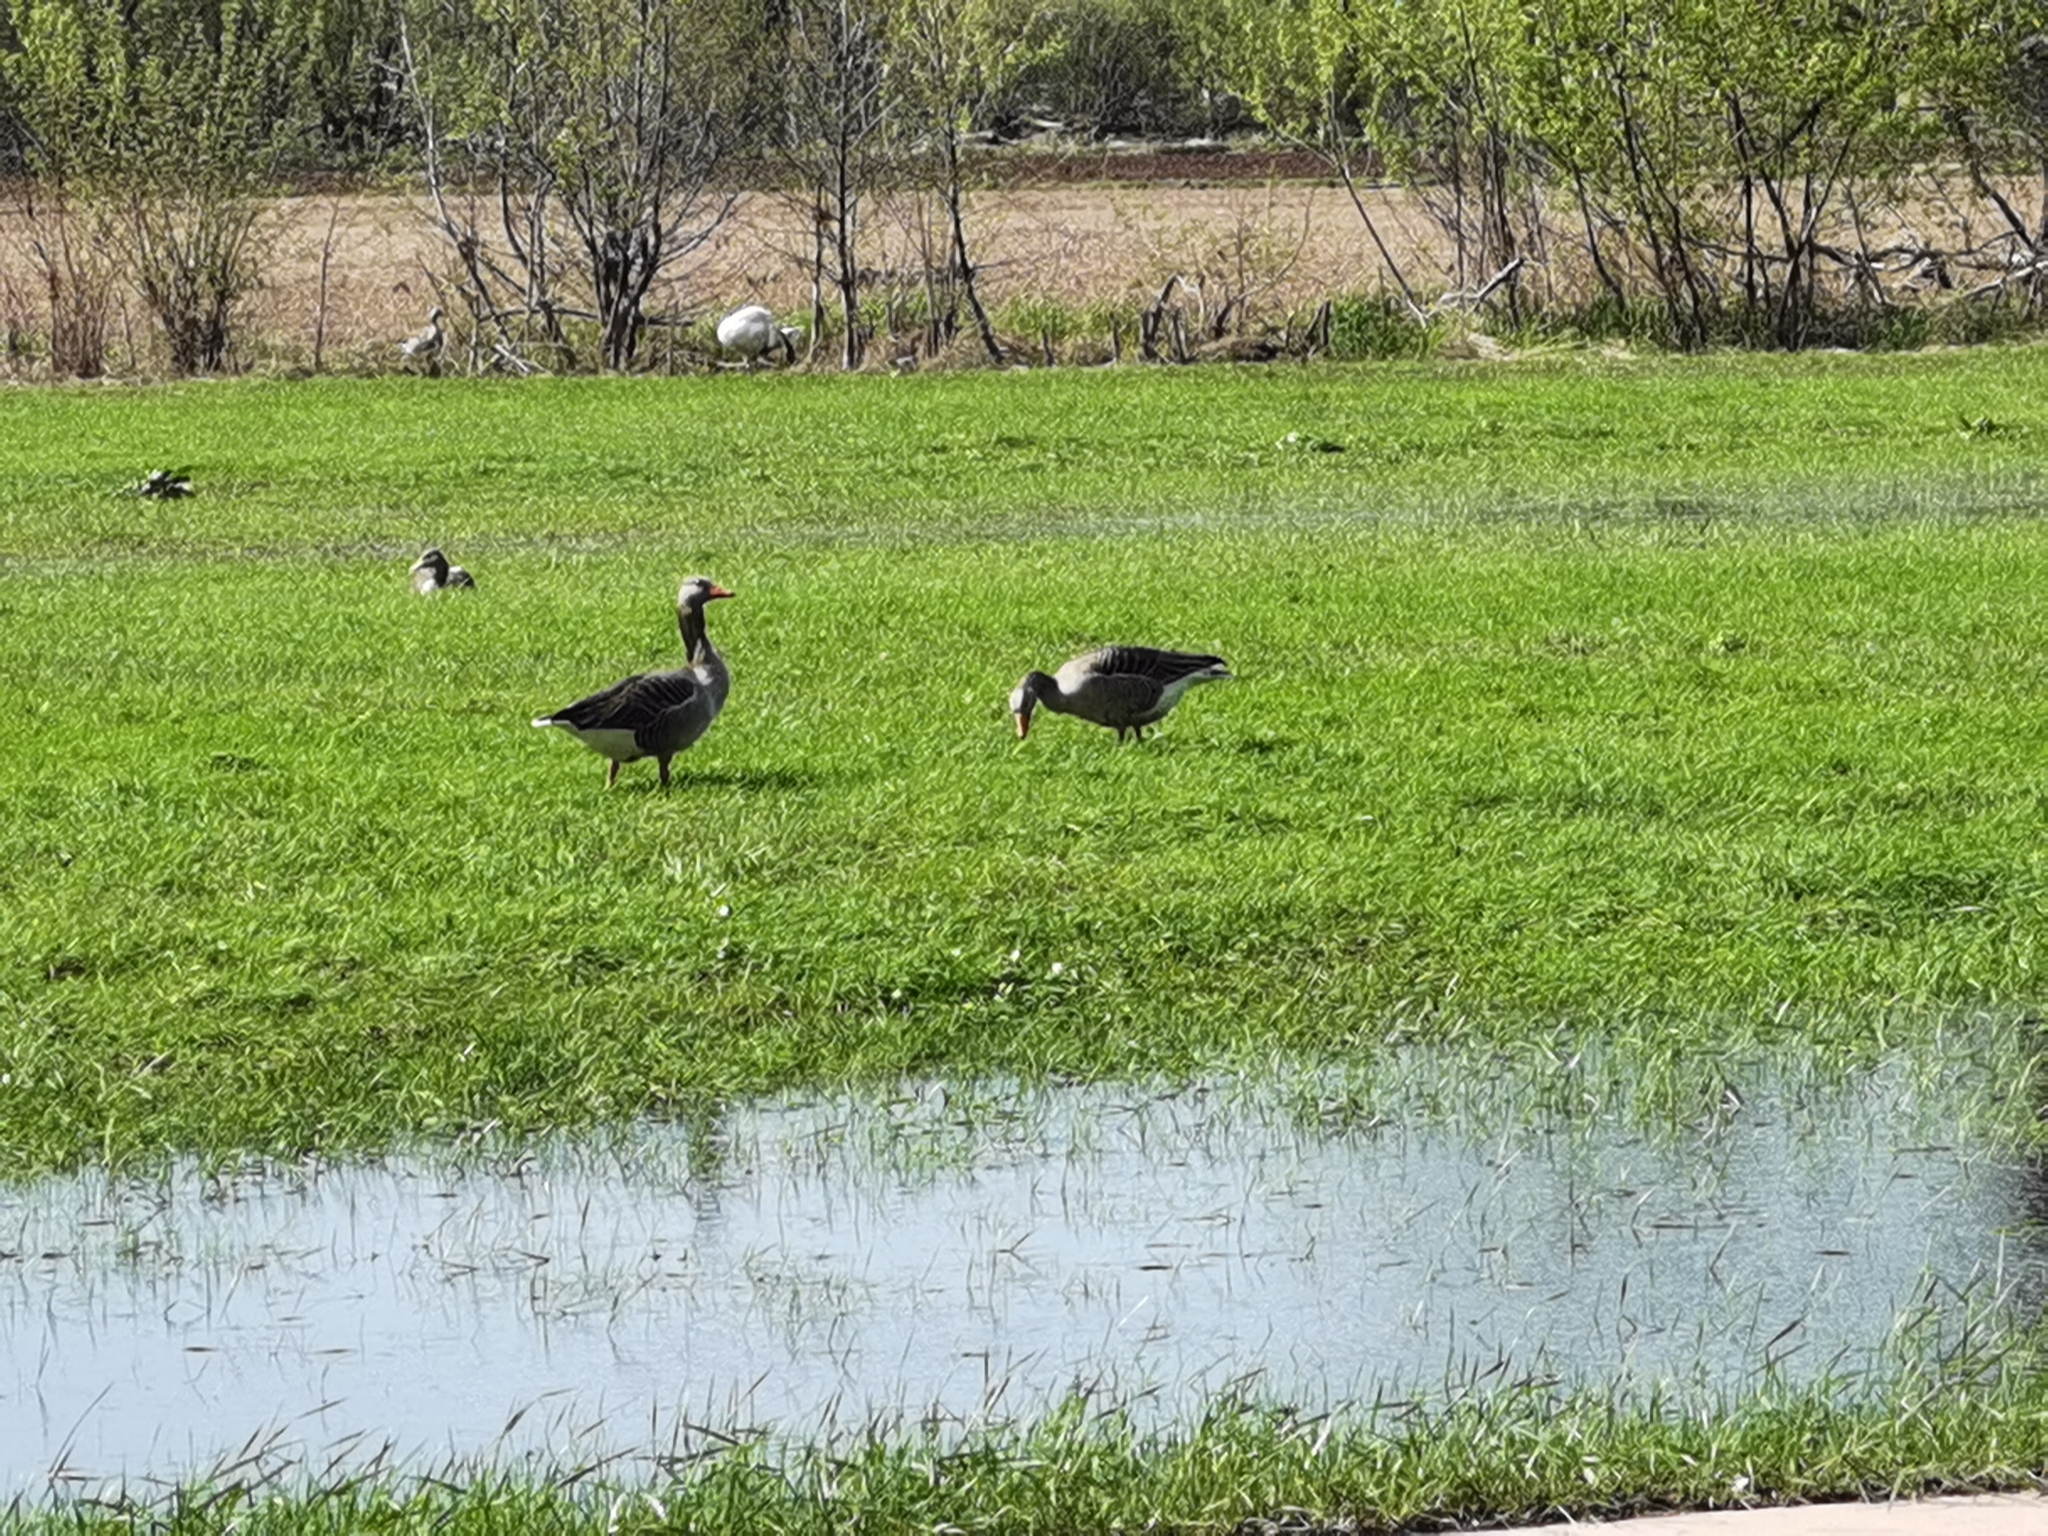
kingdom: Animalia
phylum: Chordata
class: Aves
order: Anseriformes
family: Anatidae
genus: Anser
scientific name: Anser anser
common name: Greylag goose
